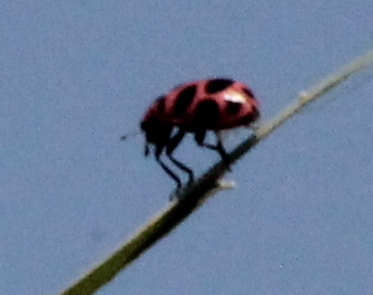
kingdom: Animalia
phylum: Arthropoda
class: Insecta
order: Coleoptera
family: Coccinellidae
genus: Coleomegilla
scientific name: Coleomegilla maculata
